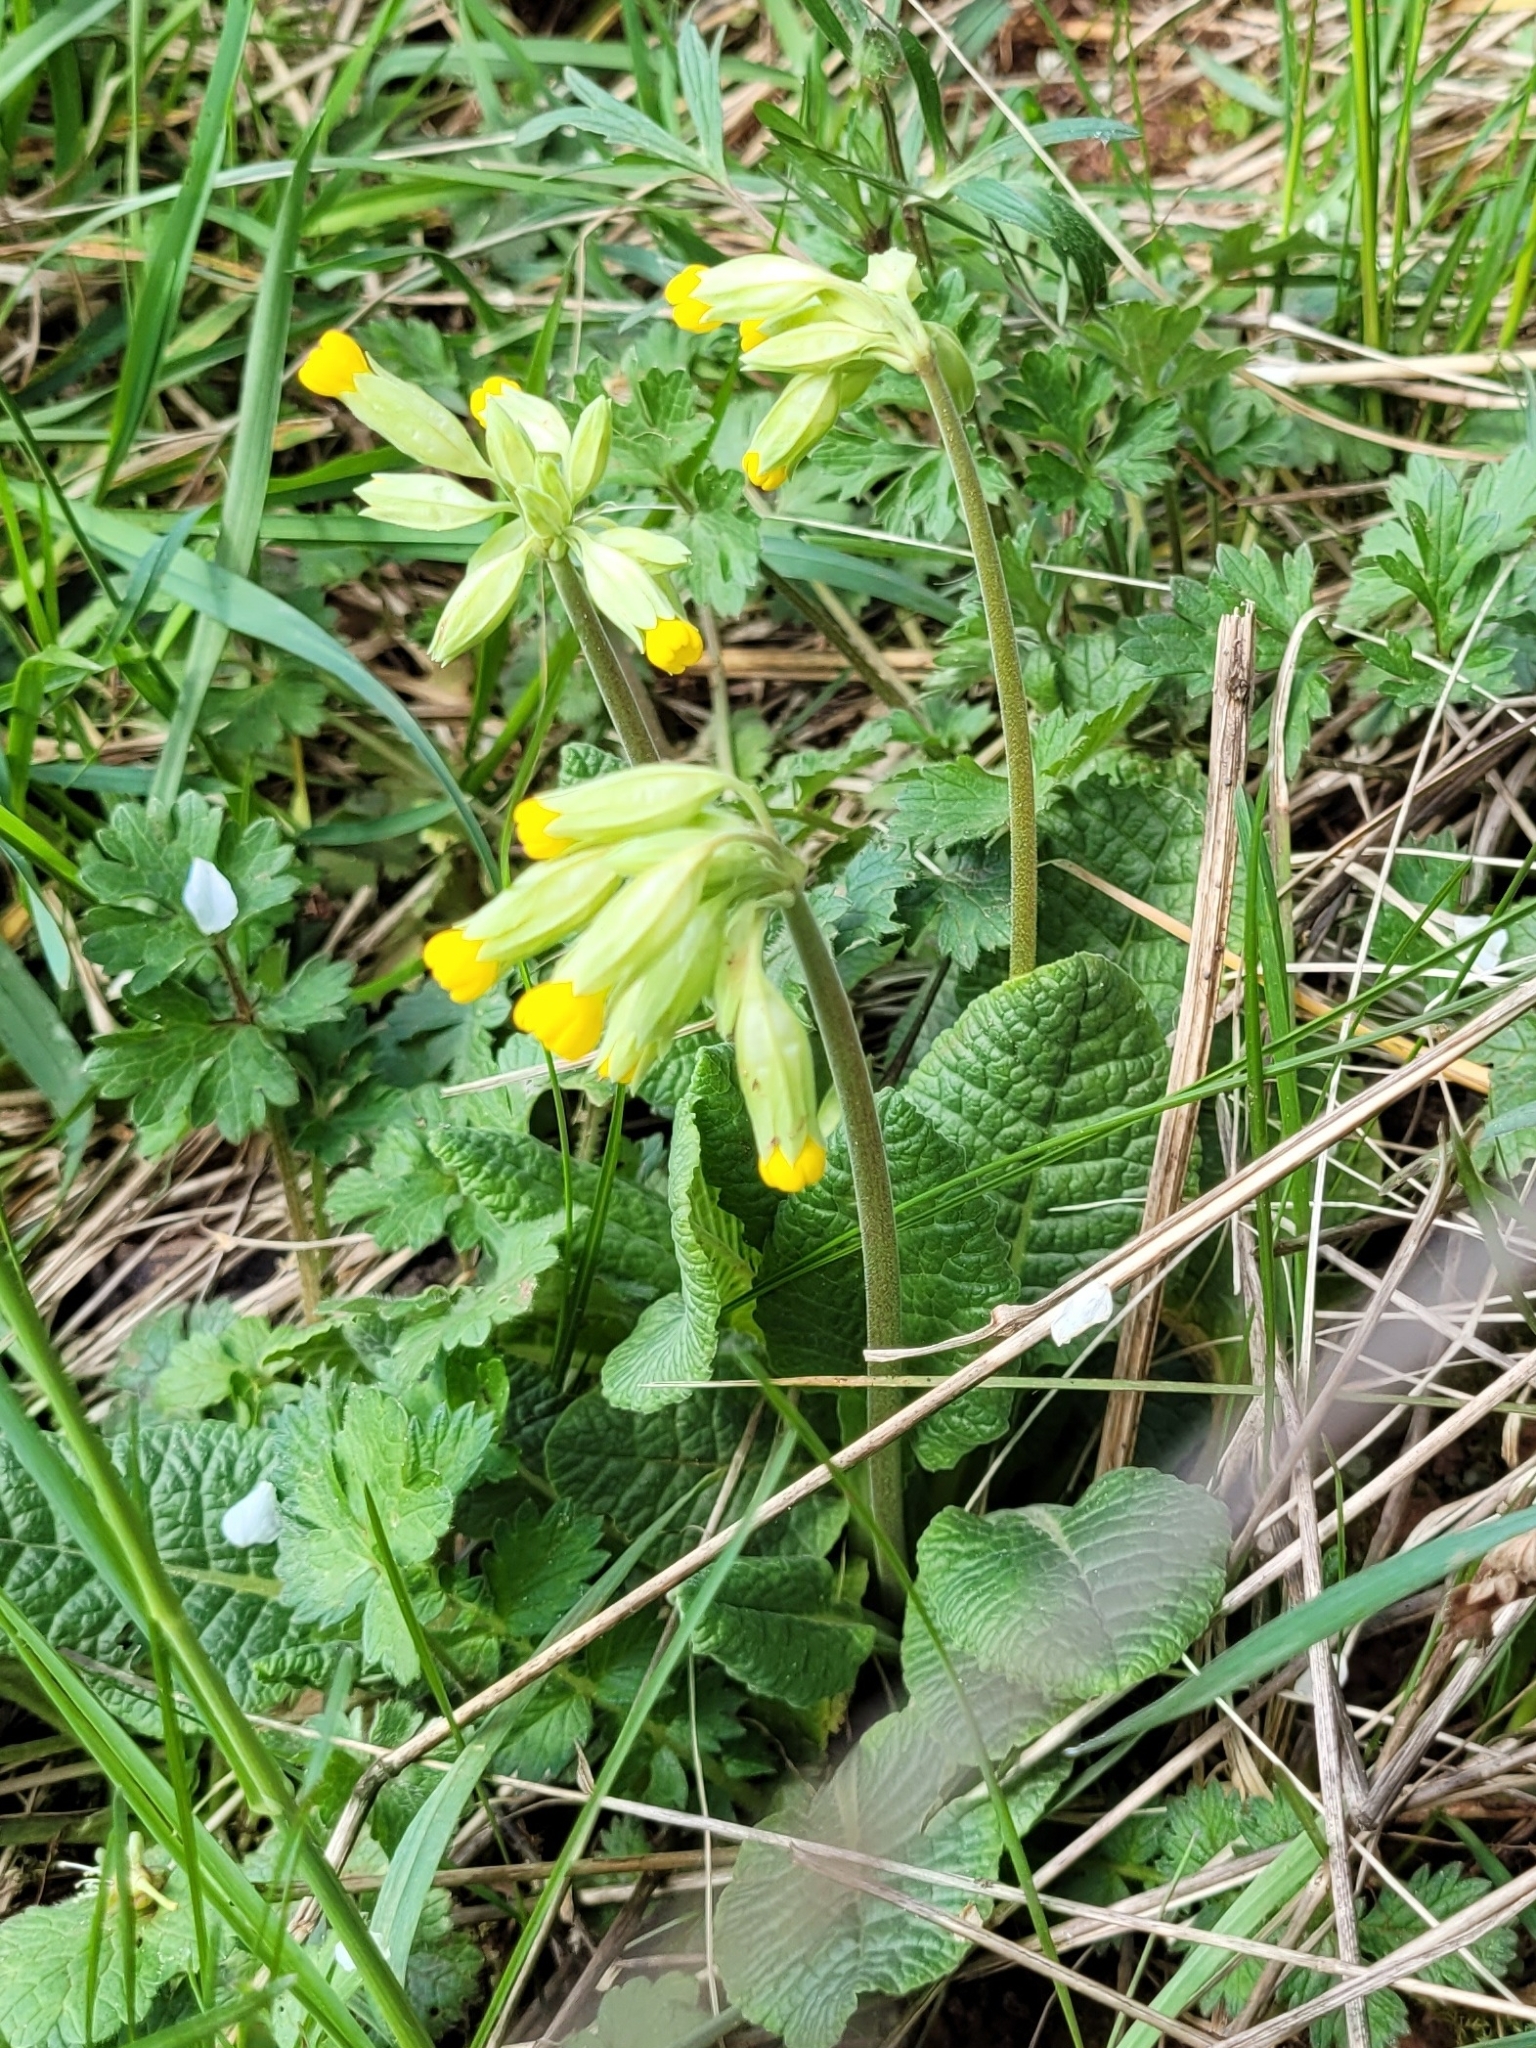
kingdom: Plantae
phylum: Tracheophyta
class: Magnoliopsida
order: Ericales
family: Primulaceae
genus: Primula
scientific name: Primula veris
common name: Cowslip
